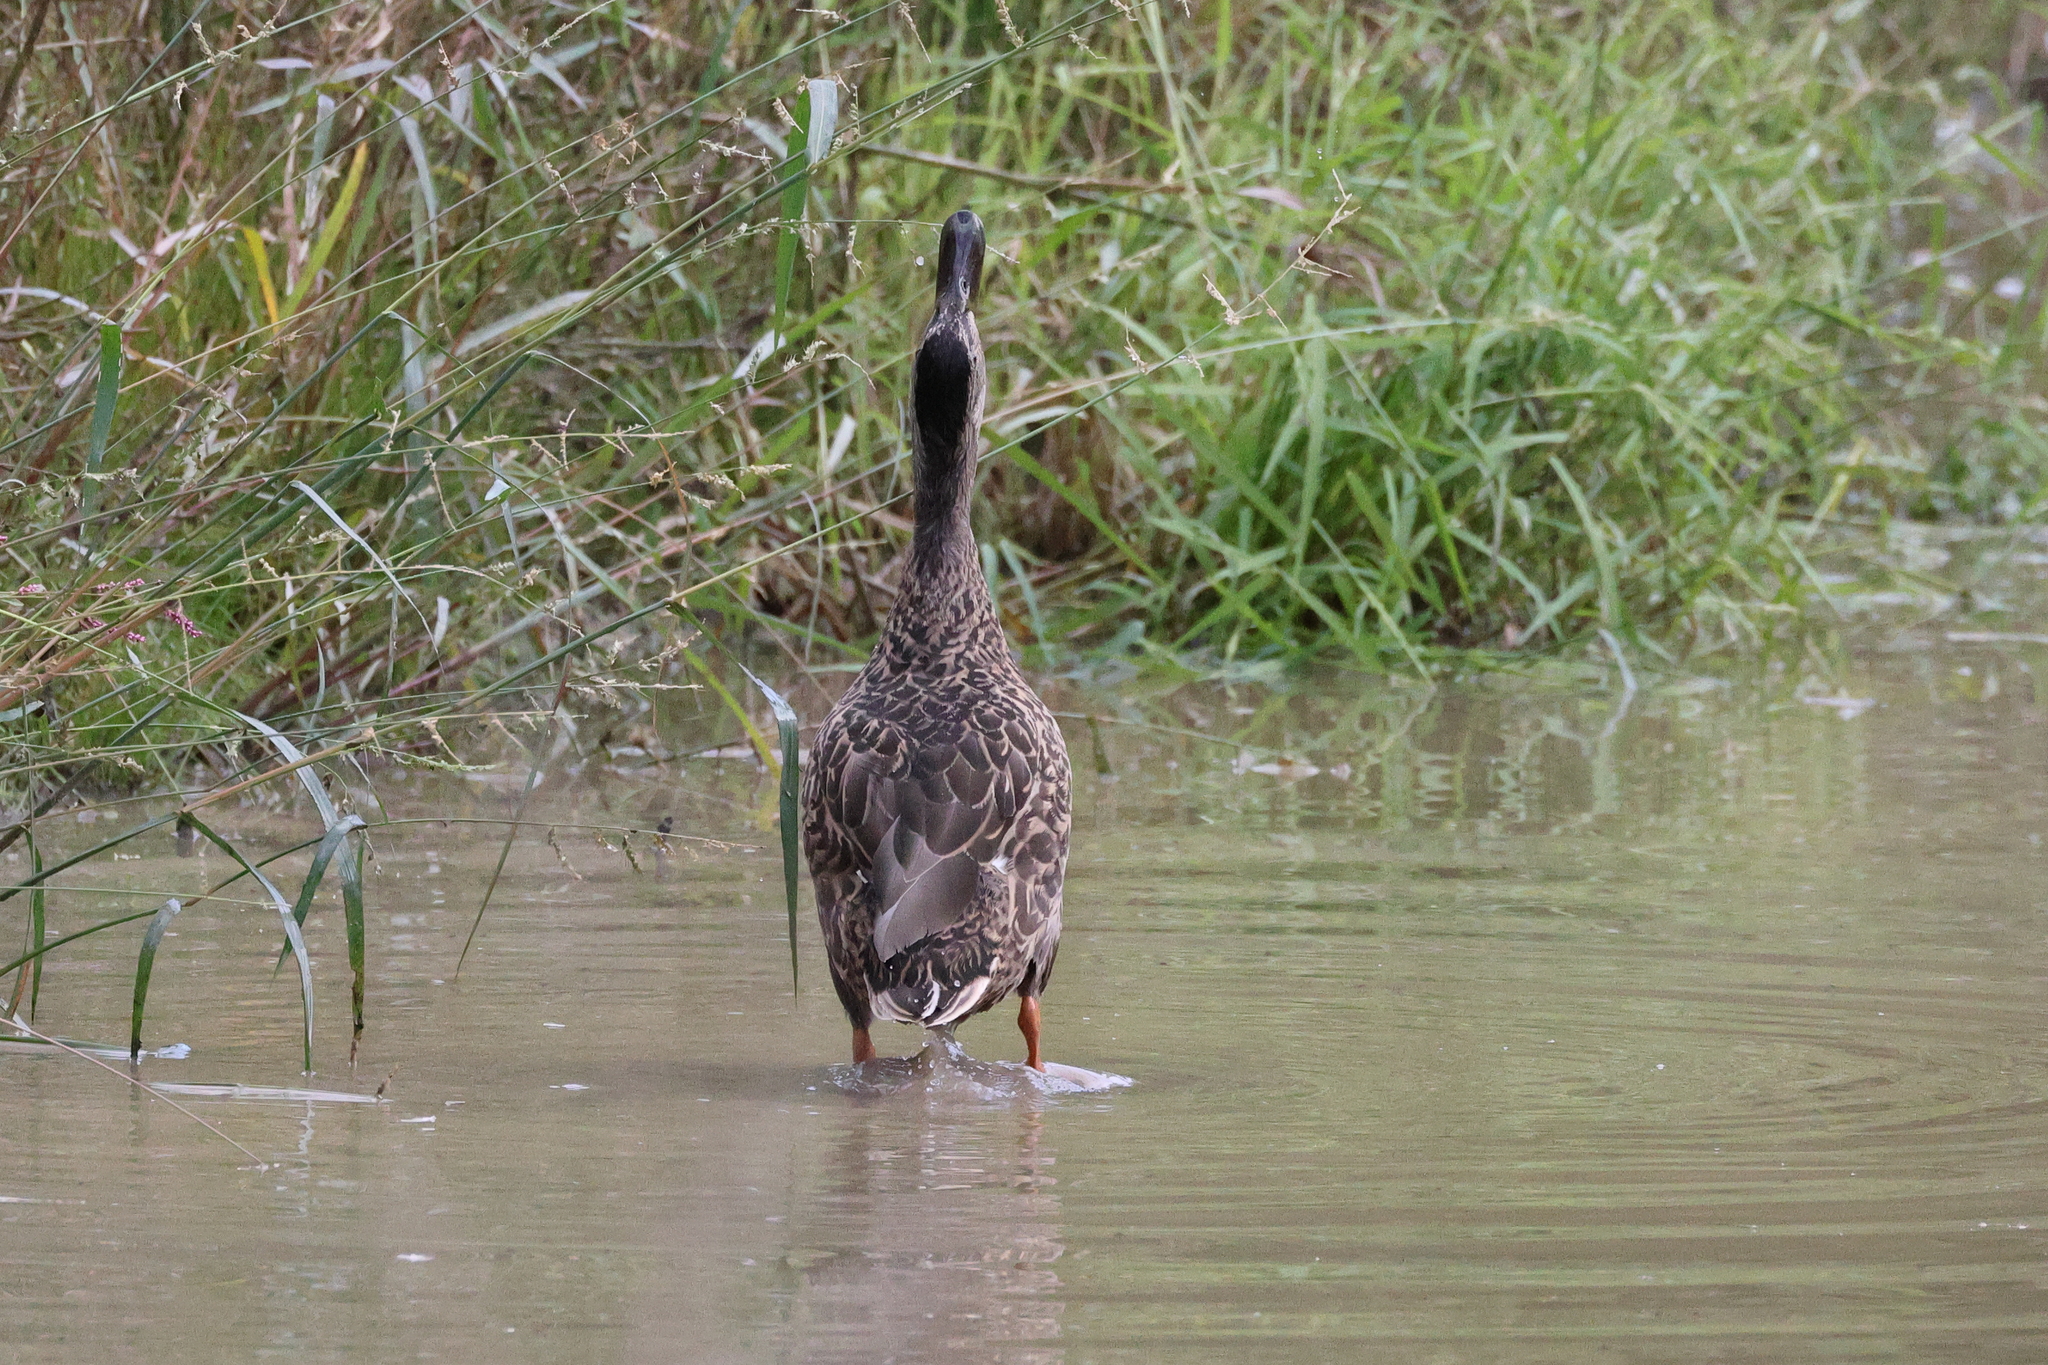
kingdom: Animalia
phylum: Chordata
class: Aves
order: Anseriformes
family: Anatidae
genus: Anas
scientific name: Anas platyrhynchos
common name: Mallard
